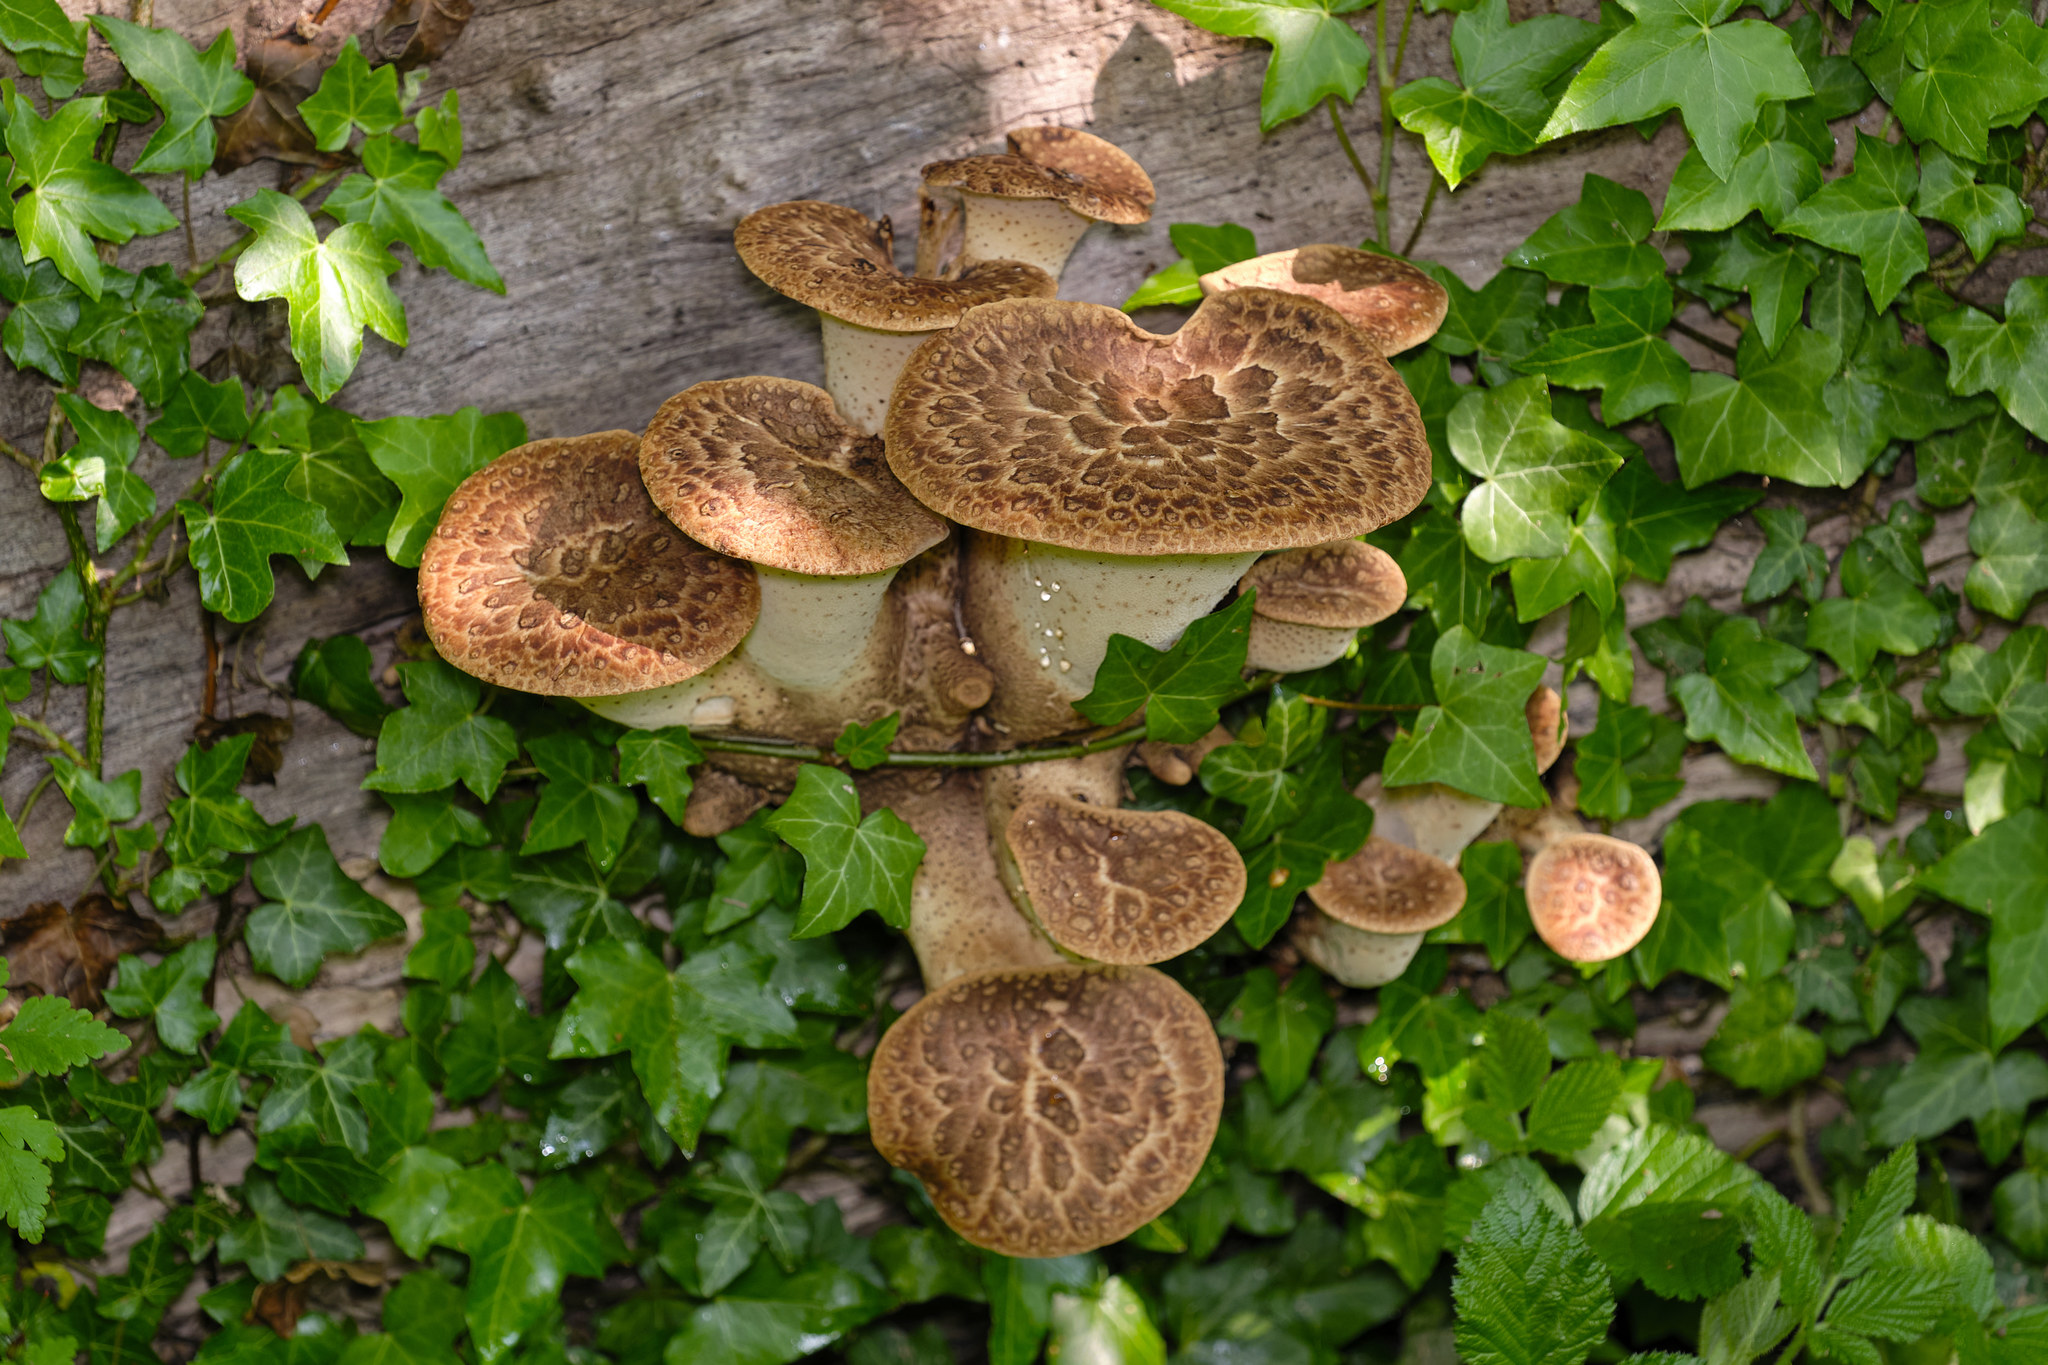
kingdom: Fungi
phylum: Basidiomycota
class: Agaricomycetes
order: Polyporales
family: Polyporaceae
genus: Cerioporus
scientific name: Cerioporus squamosus
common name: Dryad's saddle
